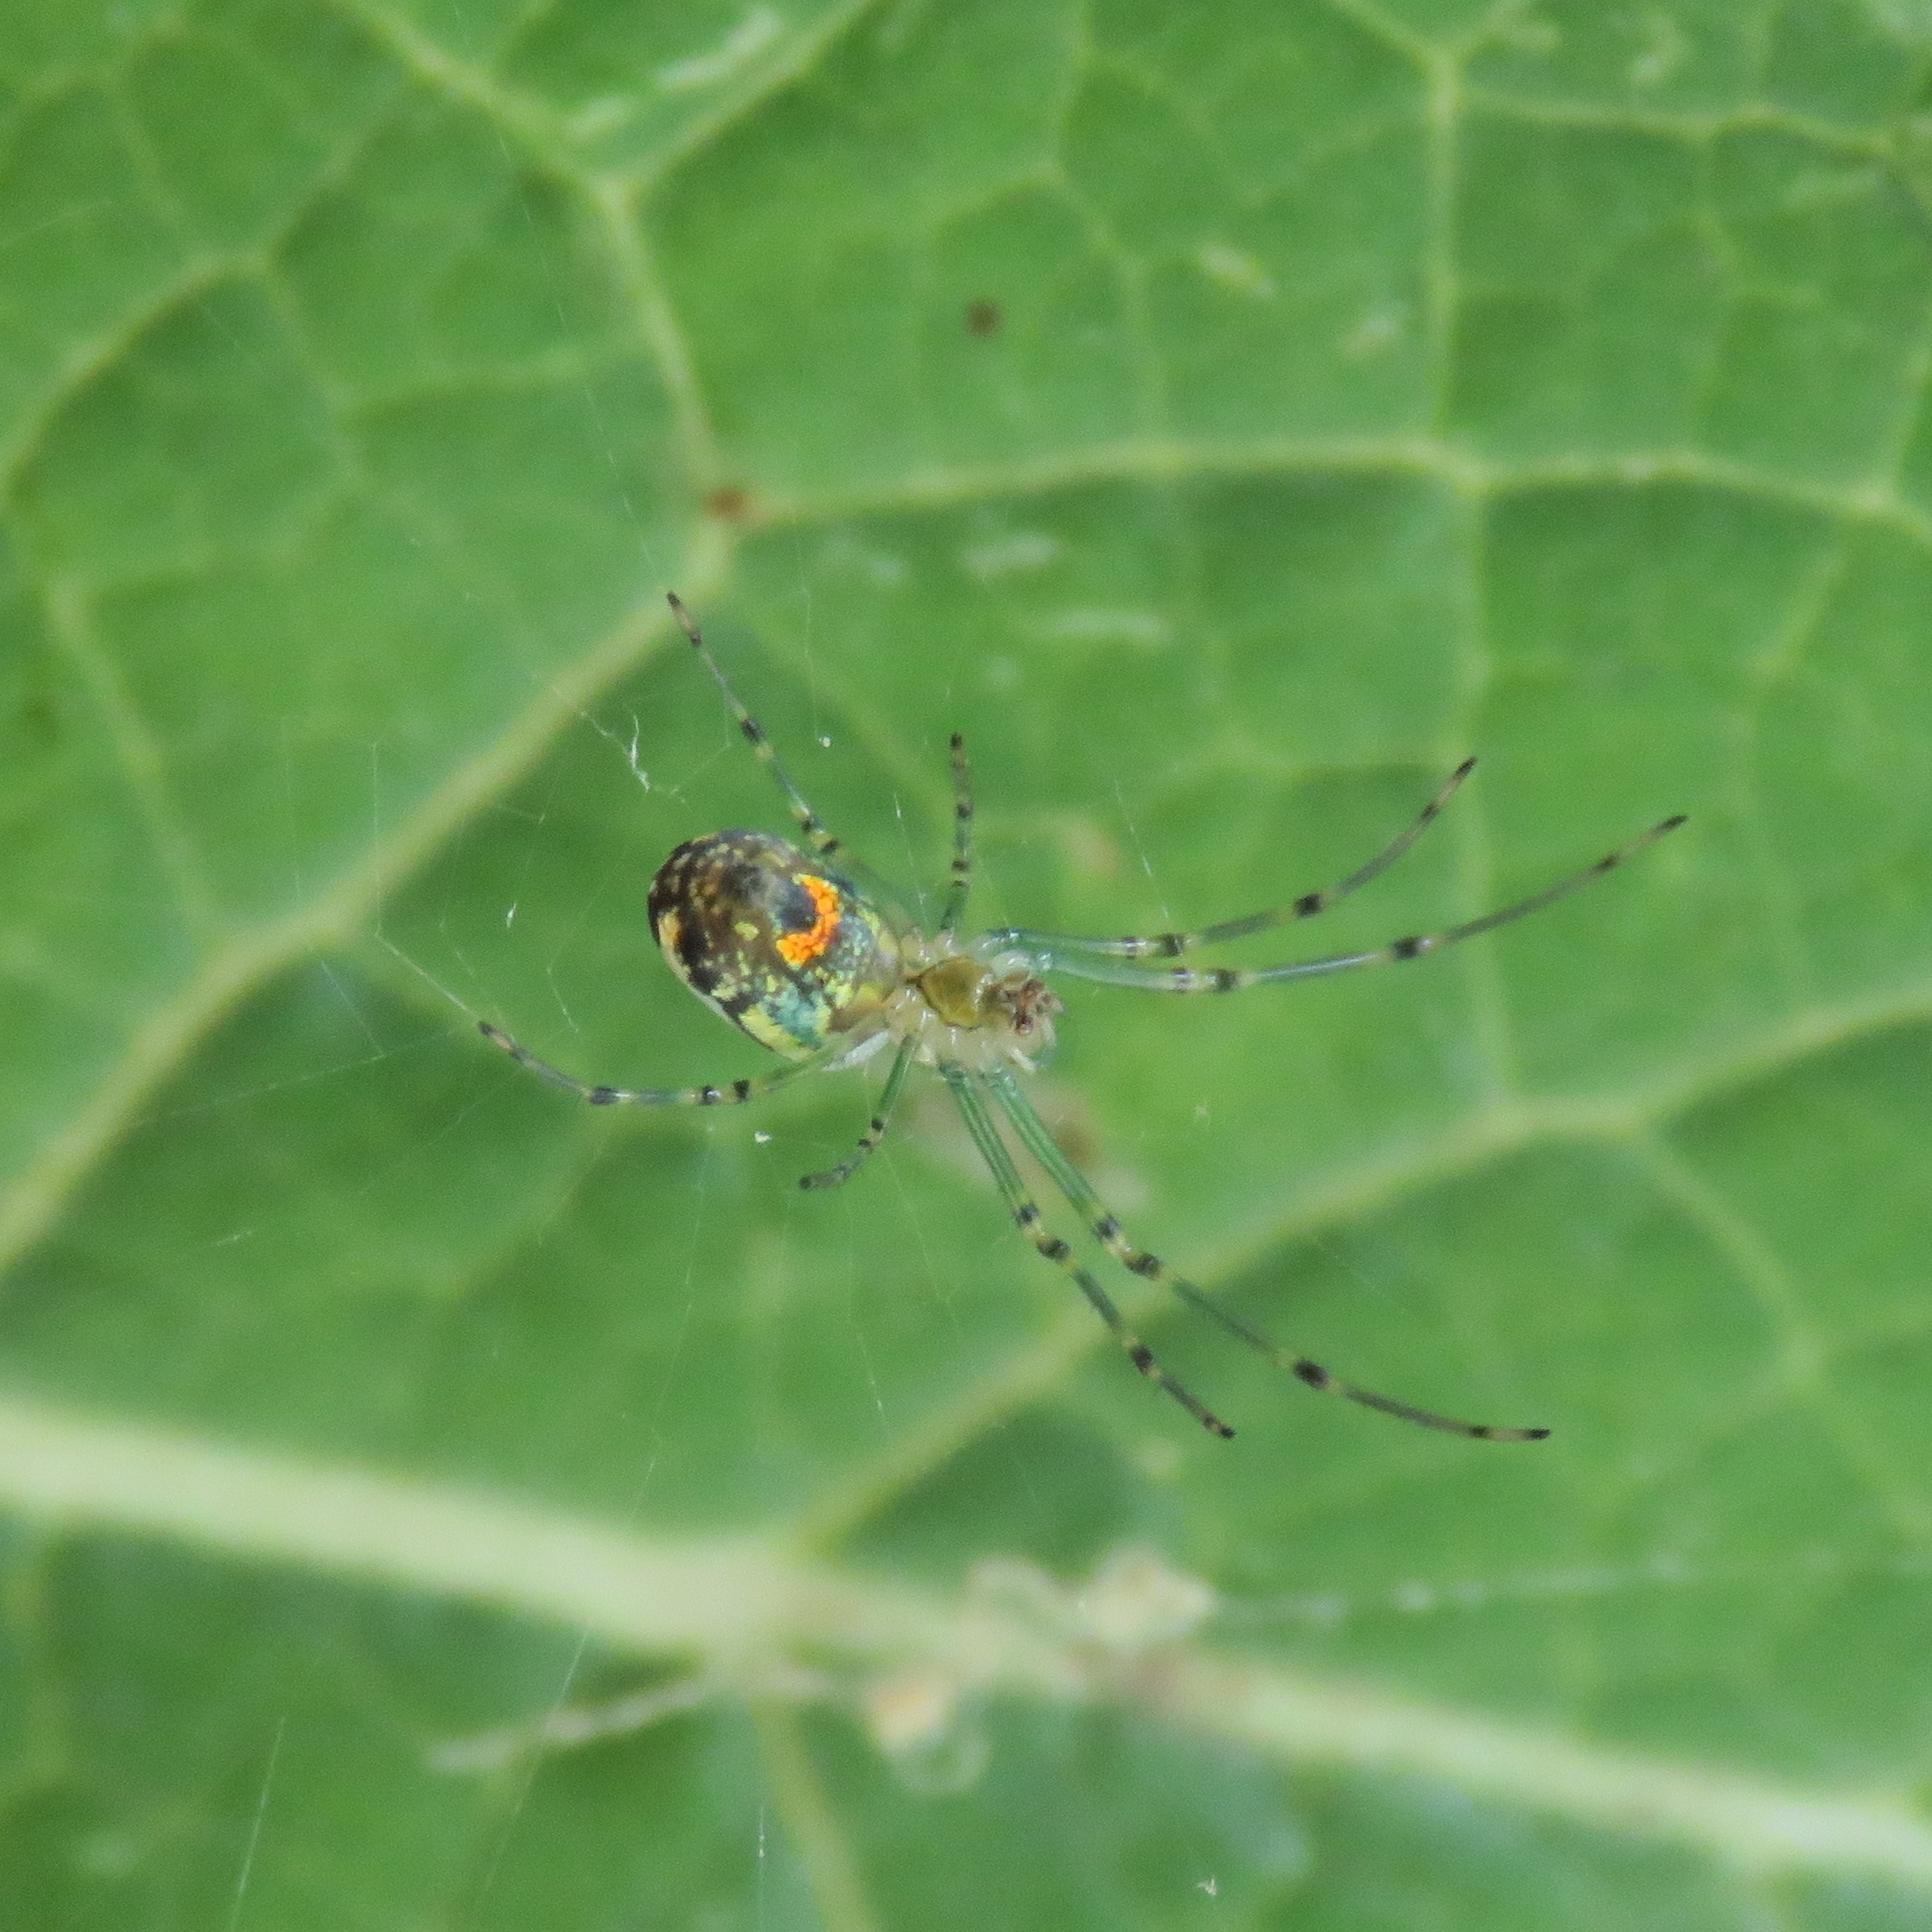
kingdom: Animalia
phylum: Arthropoda
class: Arachnida
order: Araneae
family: Tetragnathidae
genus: Leucauge
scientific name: Leucauge venusta
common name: Longjawed orb weavers
